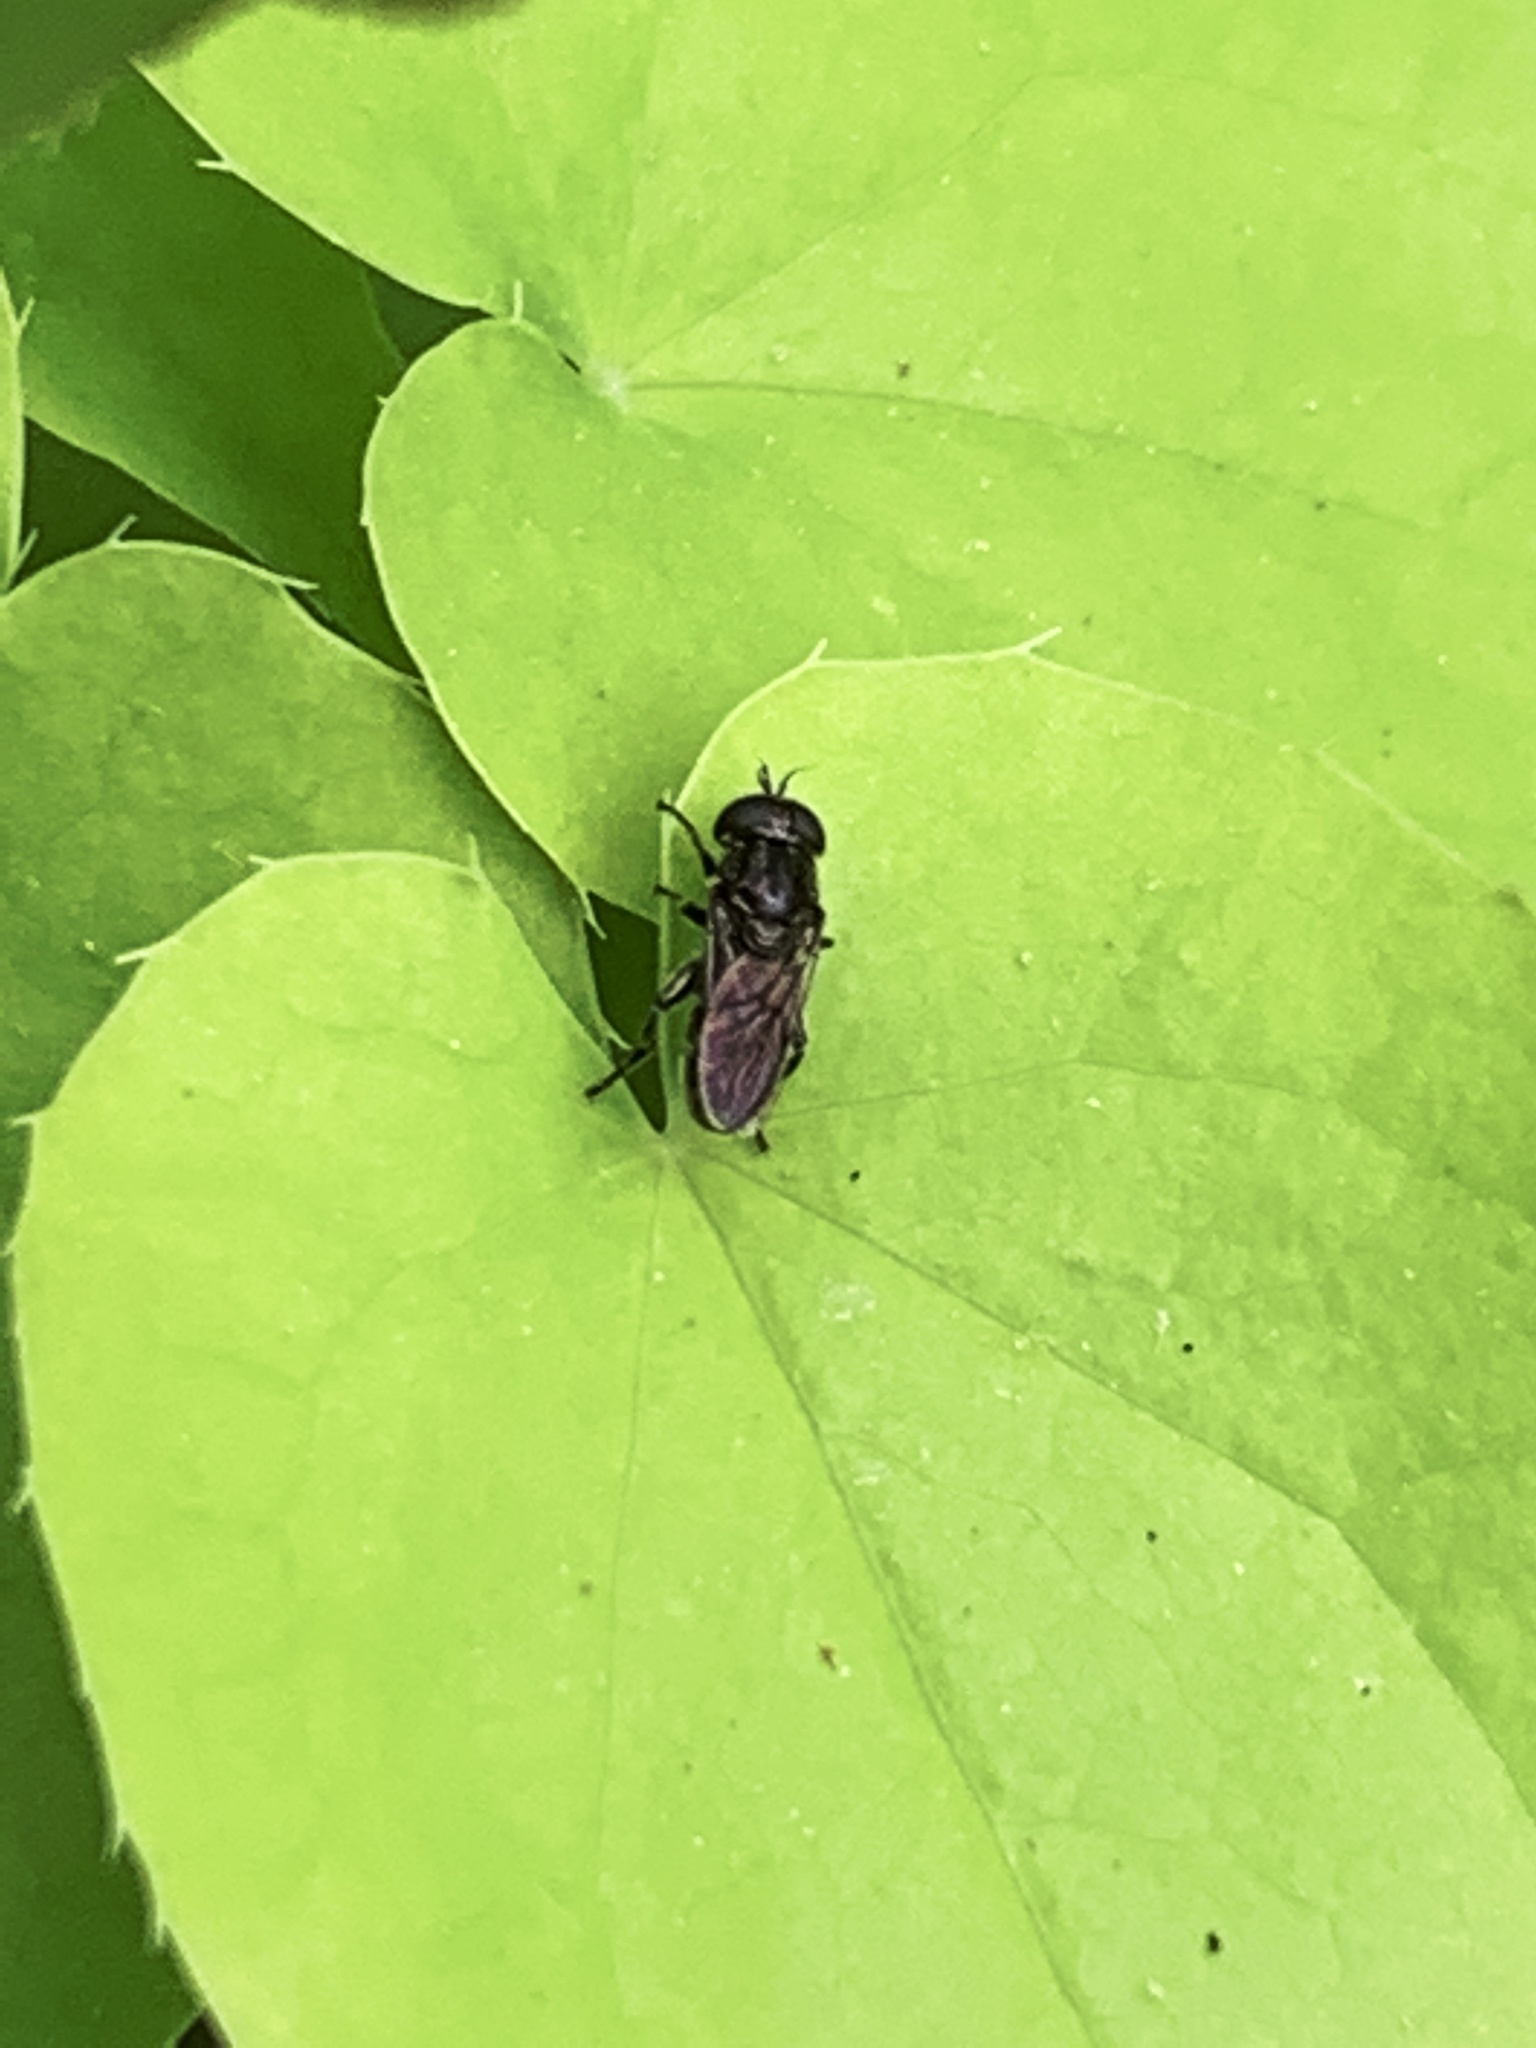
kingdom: Animalia
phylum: Arthropoda
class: Insecta
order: Diptera
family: Syrphidae
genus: Eumerus
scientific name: Eumerus
